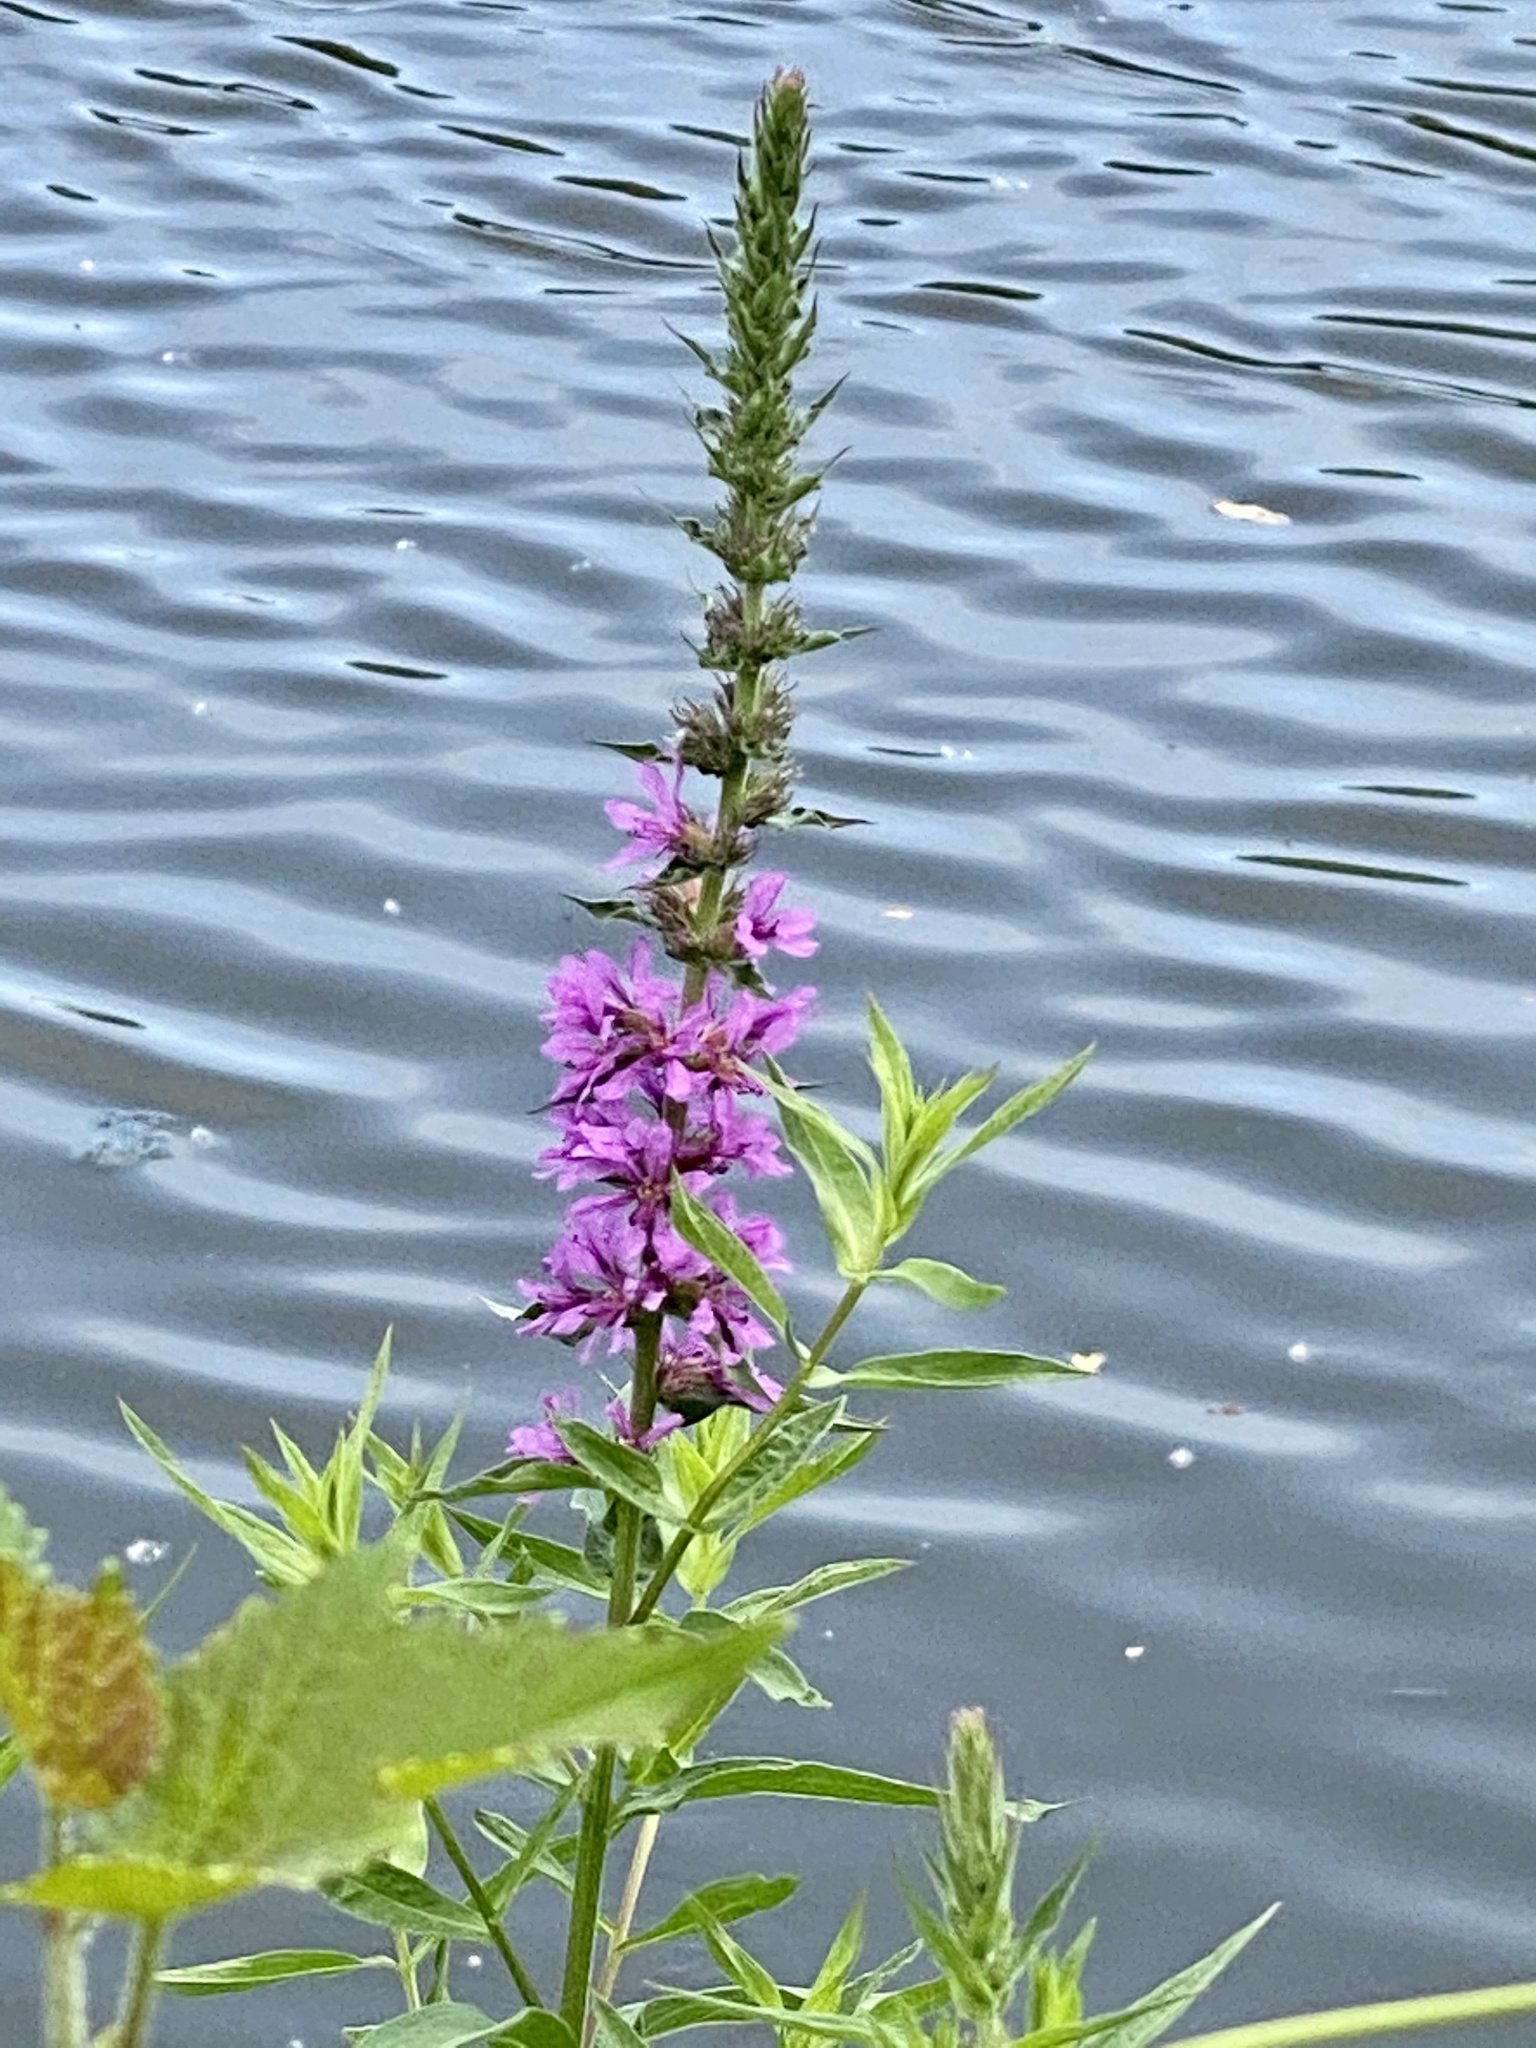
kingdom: Plantae
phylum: Tracheophyta
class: Magnoliopsida
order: Myrtales
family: Lythraceae
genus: Lythrum
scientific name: Lythrum salicaria
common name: Purple loosestrife
